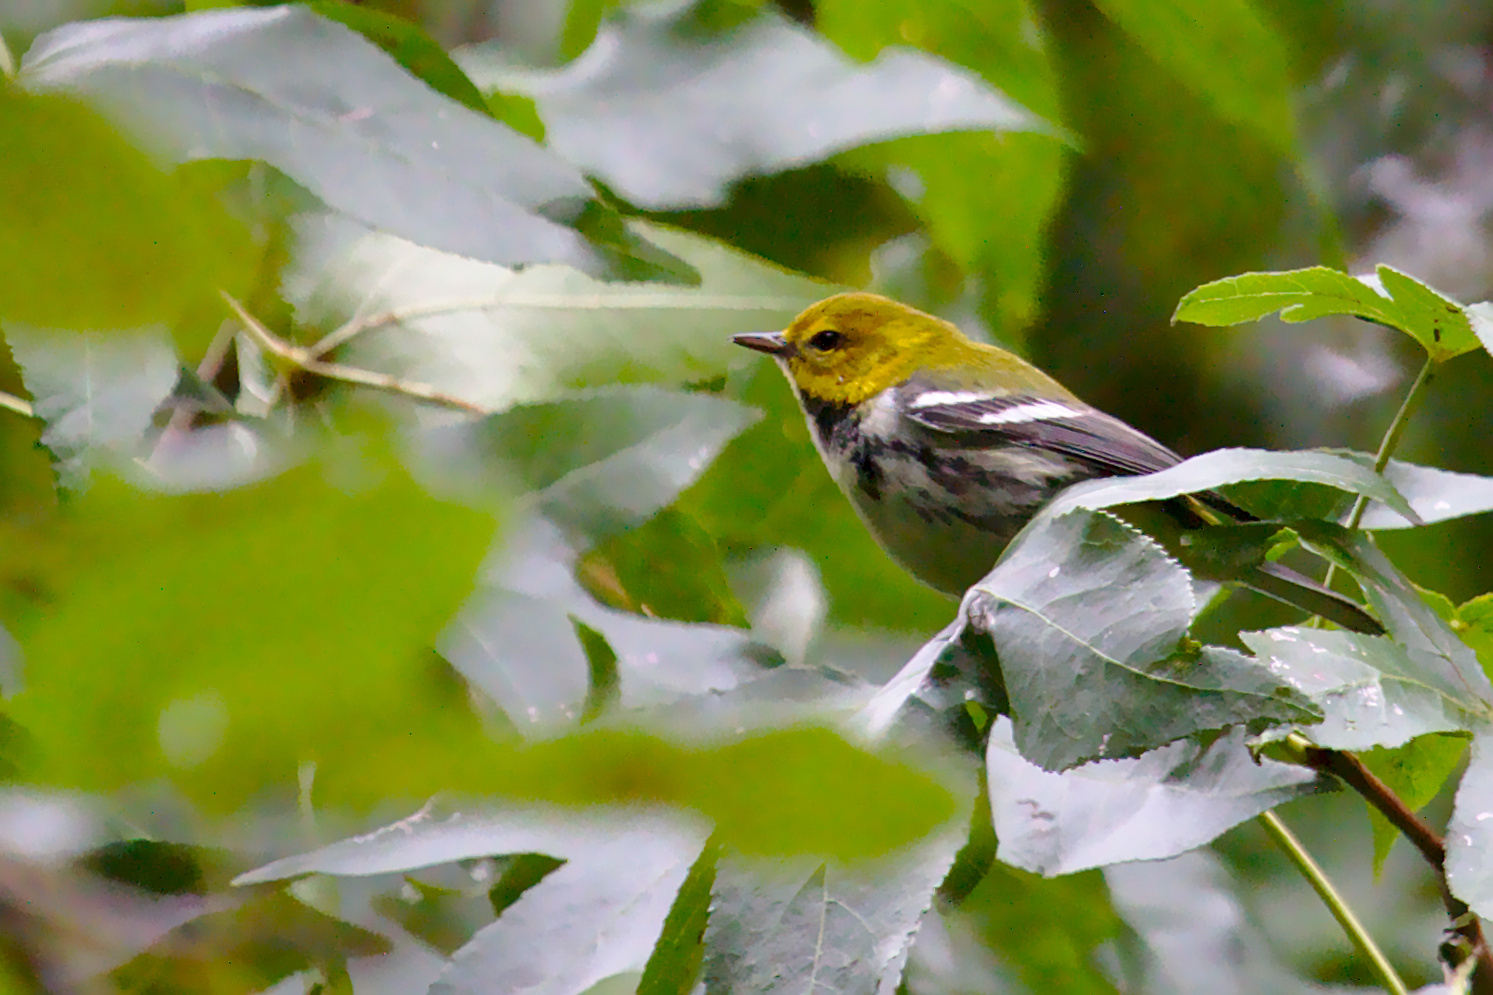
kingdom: Animalia
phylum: Chordata
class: Aves
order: Passeriformes
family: Parulidae
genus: Setophaga
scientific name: Setophaga virens
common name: Black-throated green warbler
